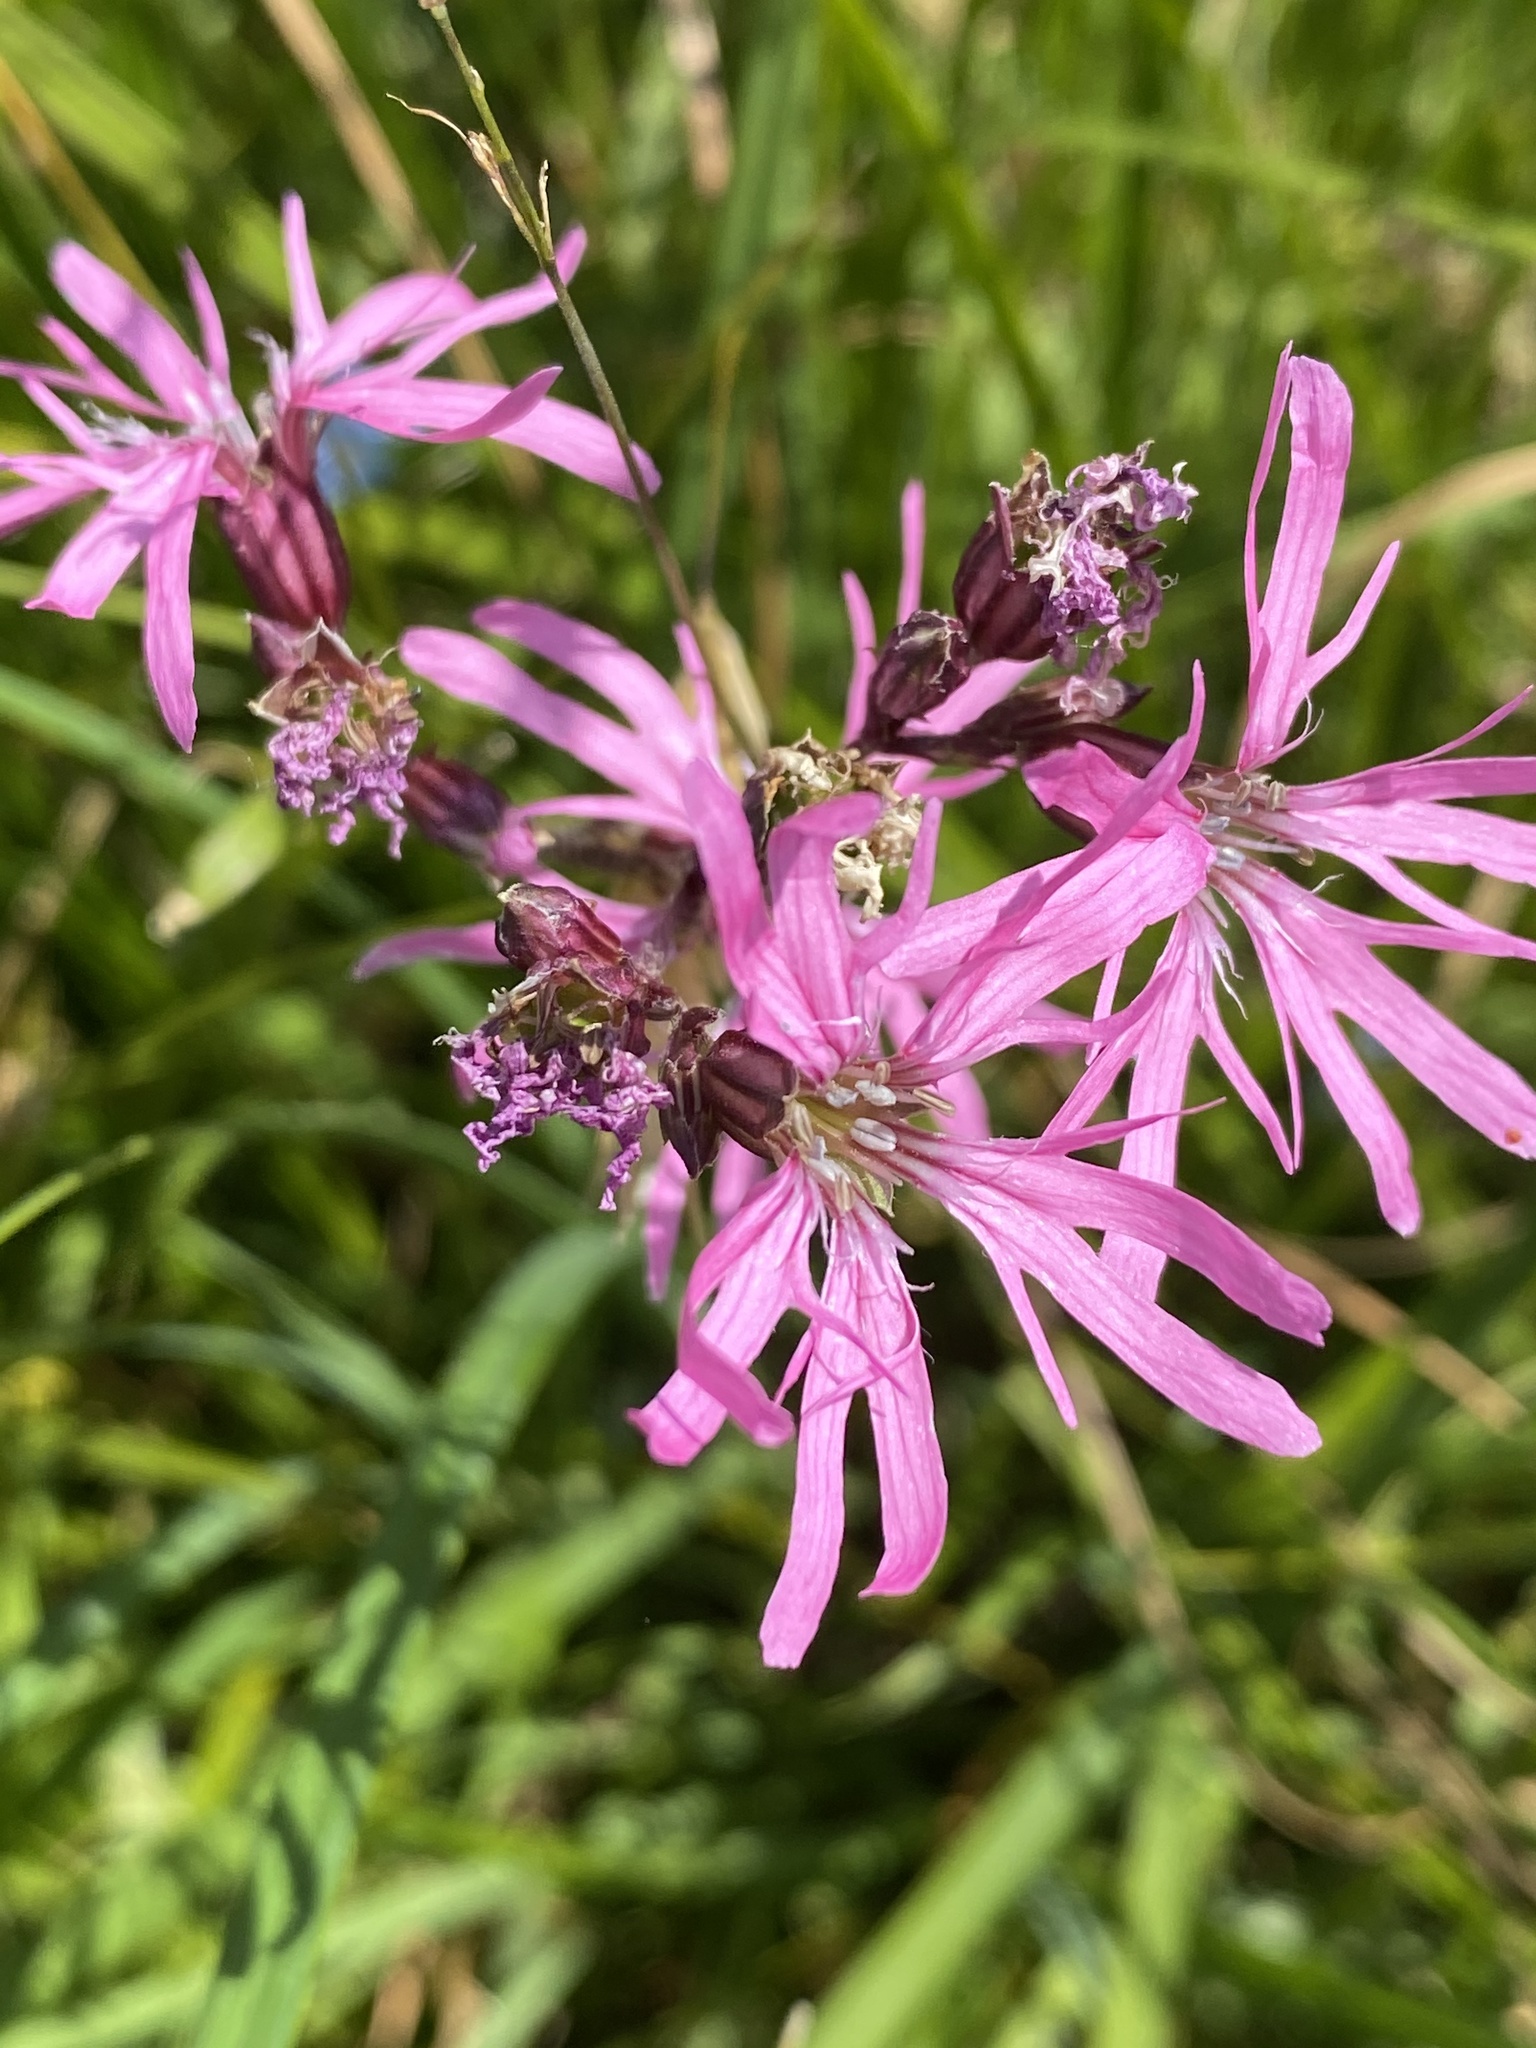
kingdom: Plantae
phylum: Tracheophyta
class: Magnoliopsida
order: Caryophyllales
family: Caryophyllaceae
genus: Silene
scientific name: Silene flos-cuculi
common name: Ragged-robin
